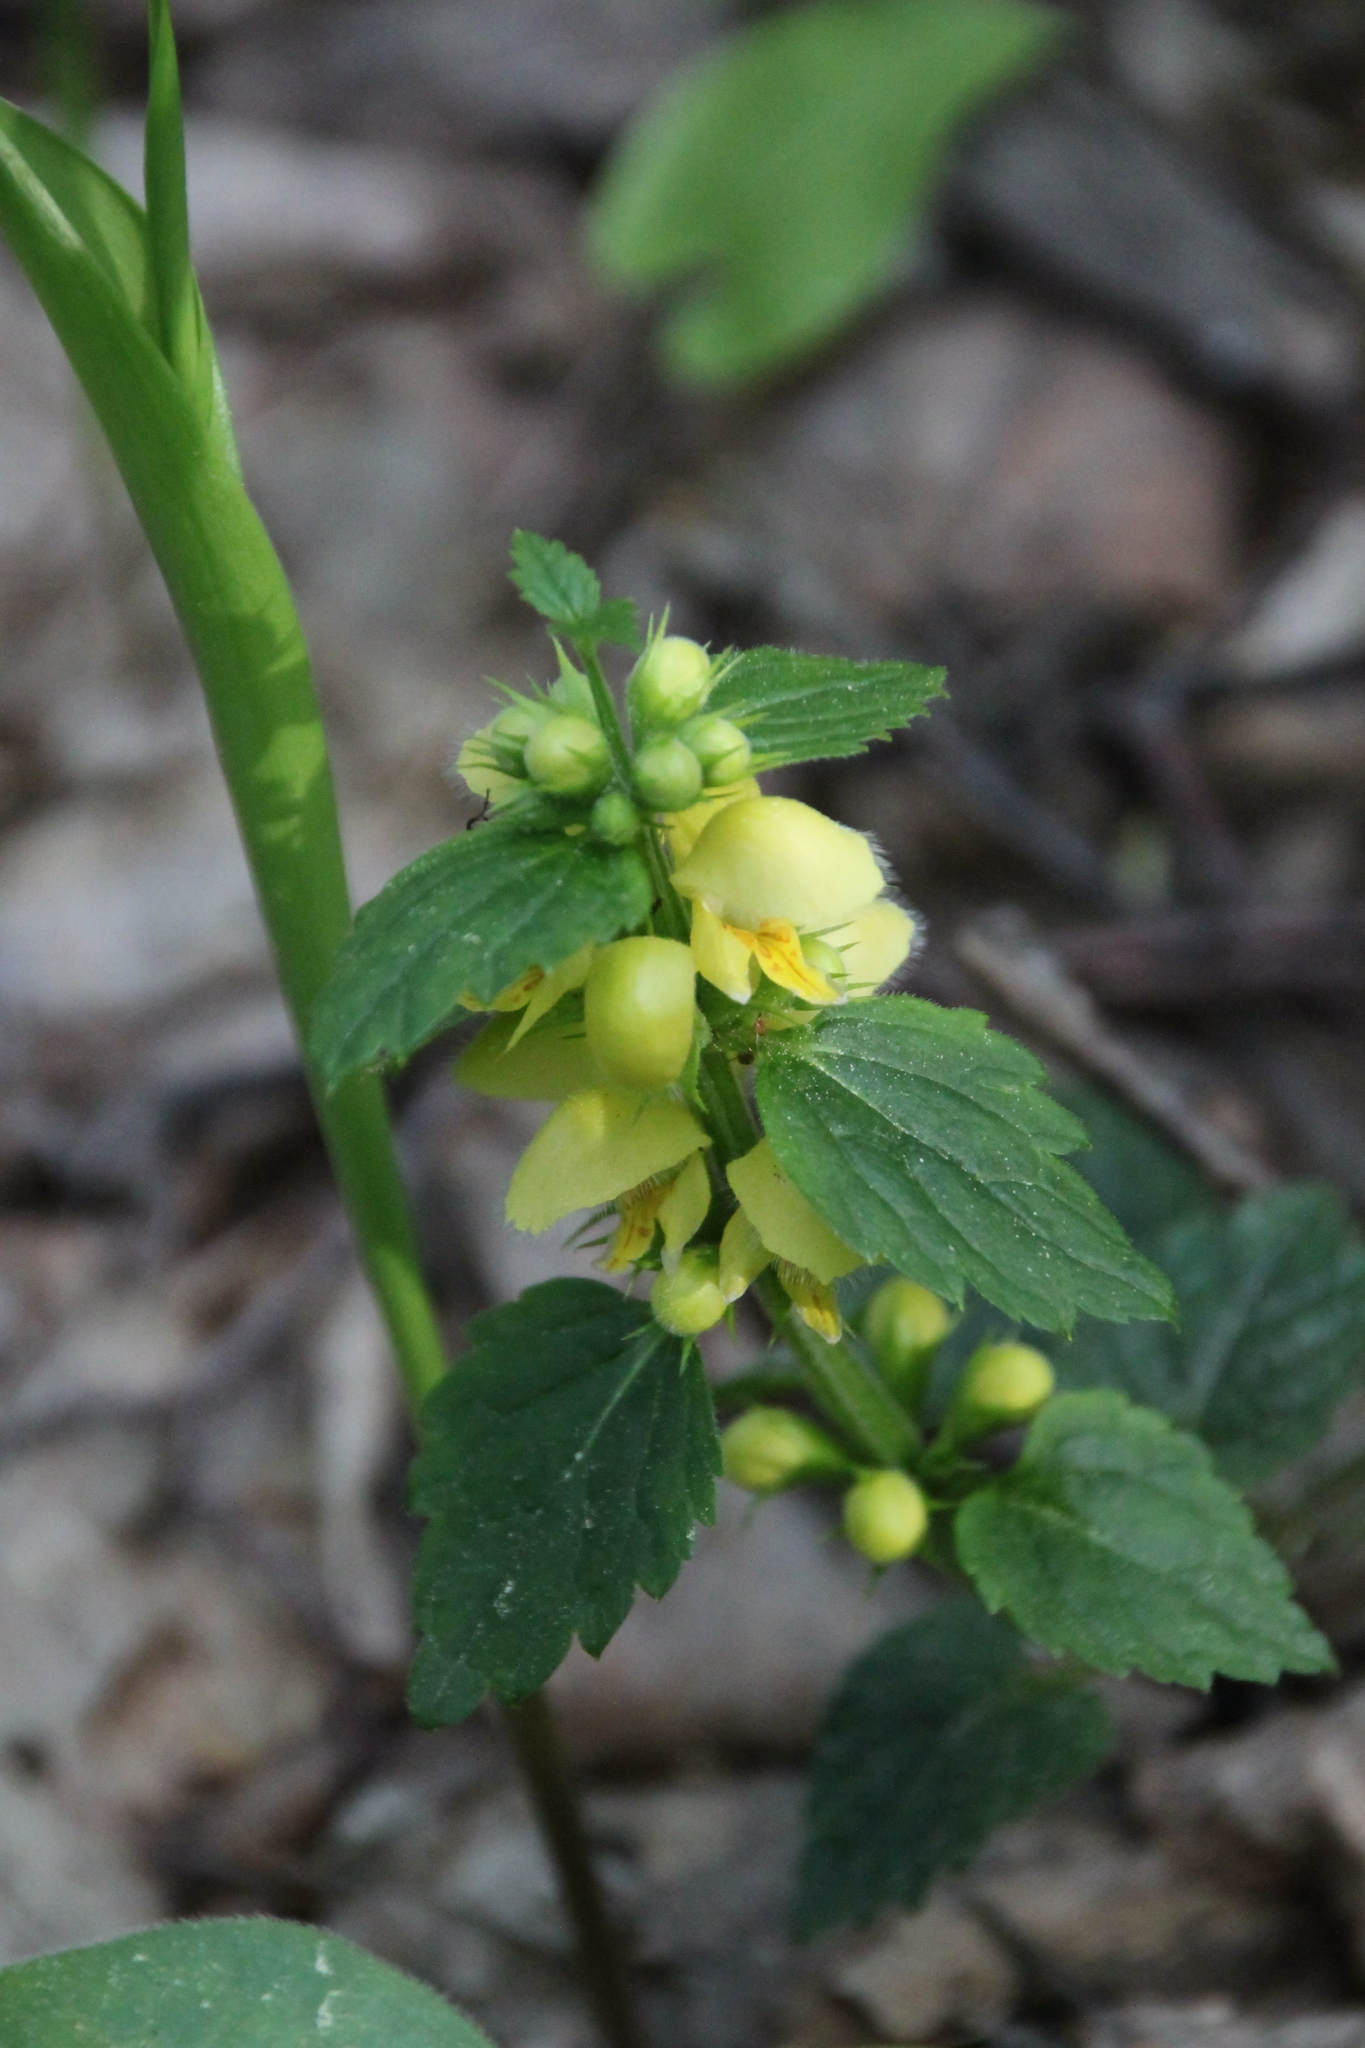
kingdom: Plantae
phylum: Tracheophyta
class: Magnoliopsida
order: Lamiales
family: Lamiaceae
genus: Lamium
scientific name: Lamium galeobdolon
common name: Yellow archangel
